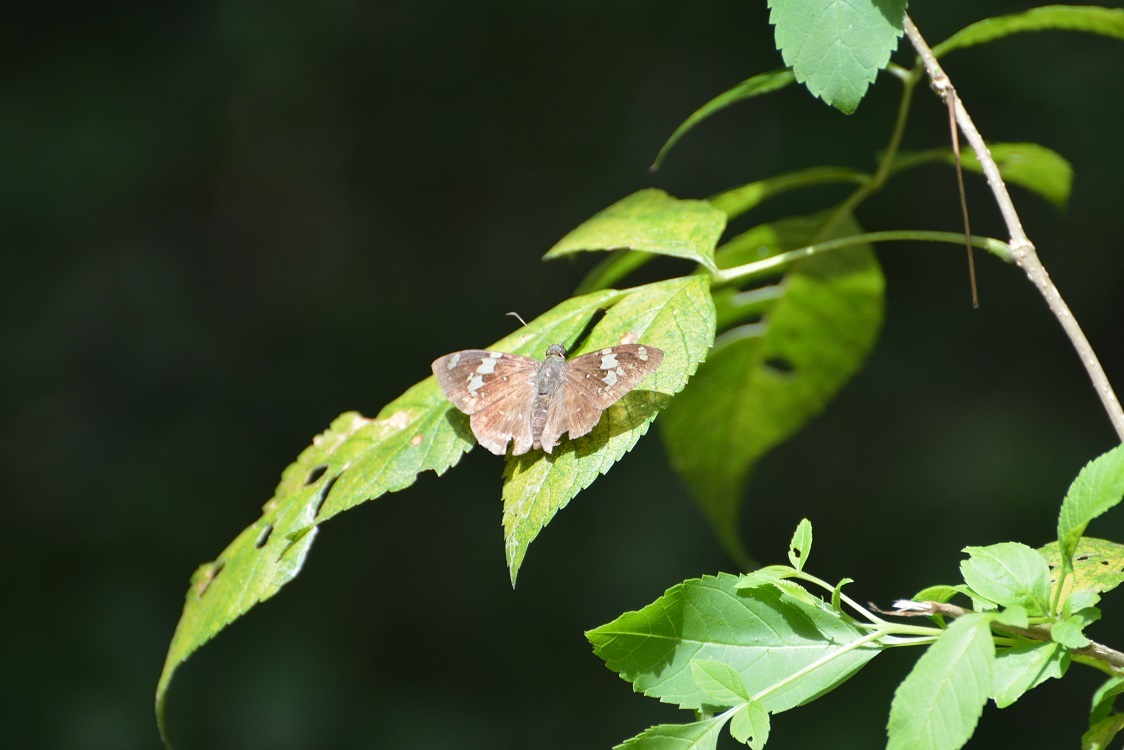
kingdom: Animalia
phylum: Arthropoda
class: Insecta
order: Lepidoptera
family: Hesperiidae
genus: Celaenorrhinus
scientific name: Celaenorrhinus similis
